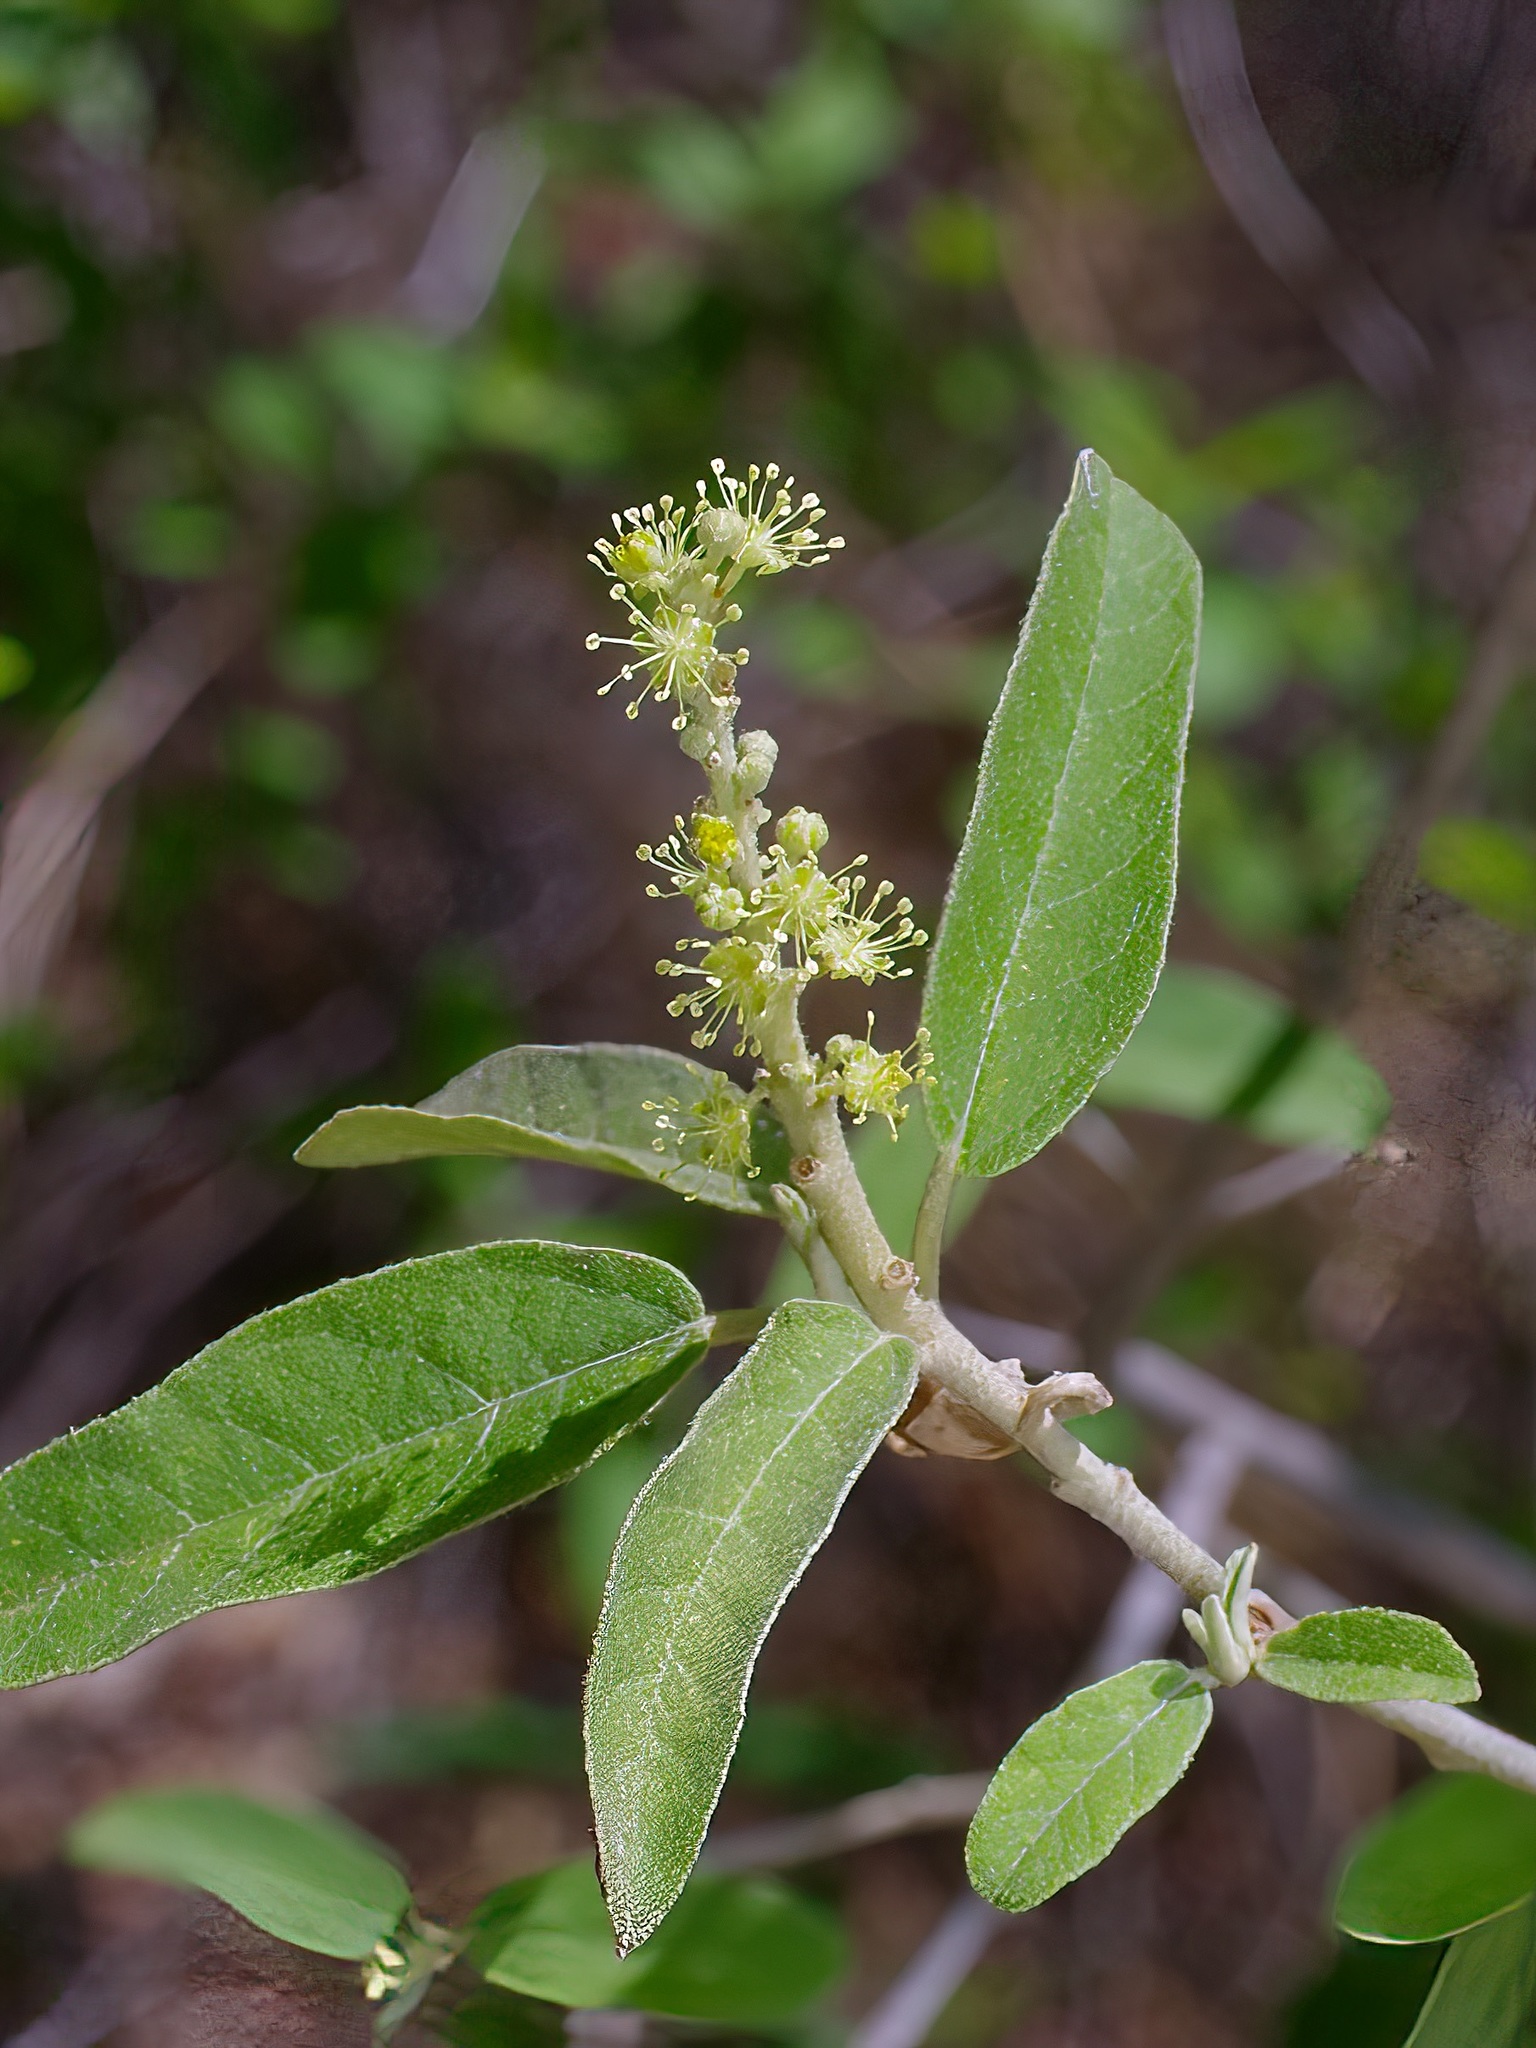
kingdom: Plantae
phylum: Tracheophyta
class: Magnoliopsida
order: Malpighiales
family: Euphorbiaceae
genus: Croton
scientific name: Croton incanus
